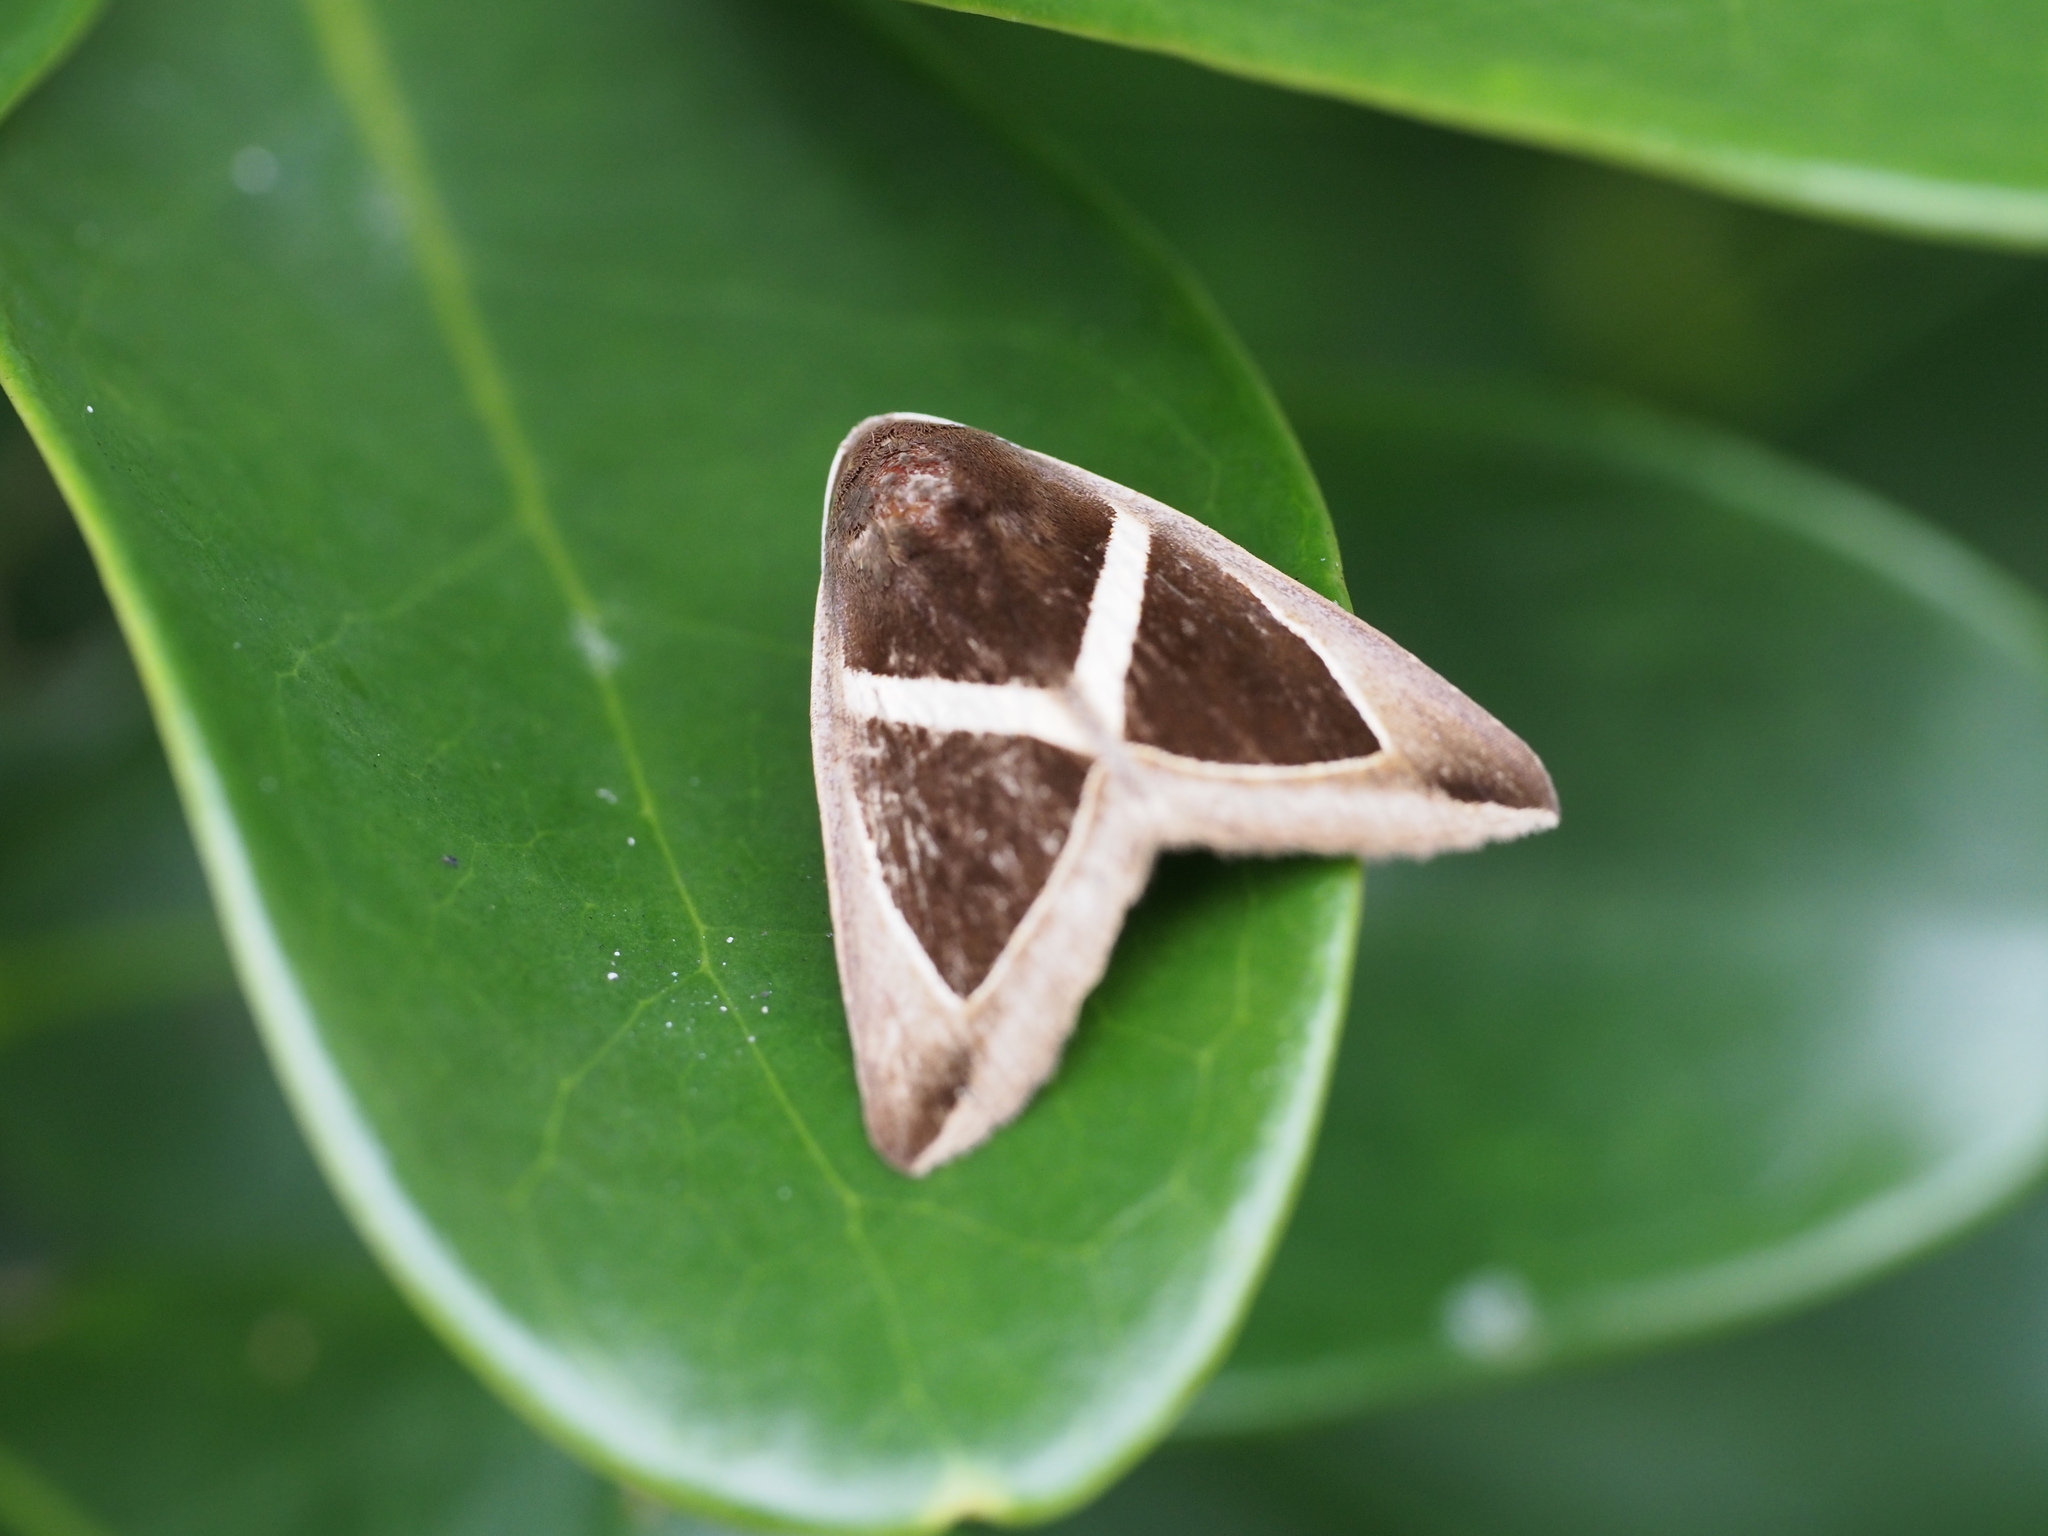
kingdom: Animalia
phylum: Arthropoda
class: Insecta
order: Lepidoptera
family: Erebidae
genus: Chalciope
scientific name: Chalciope mygdon
